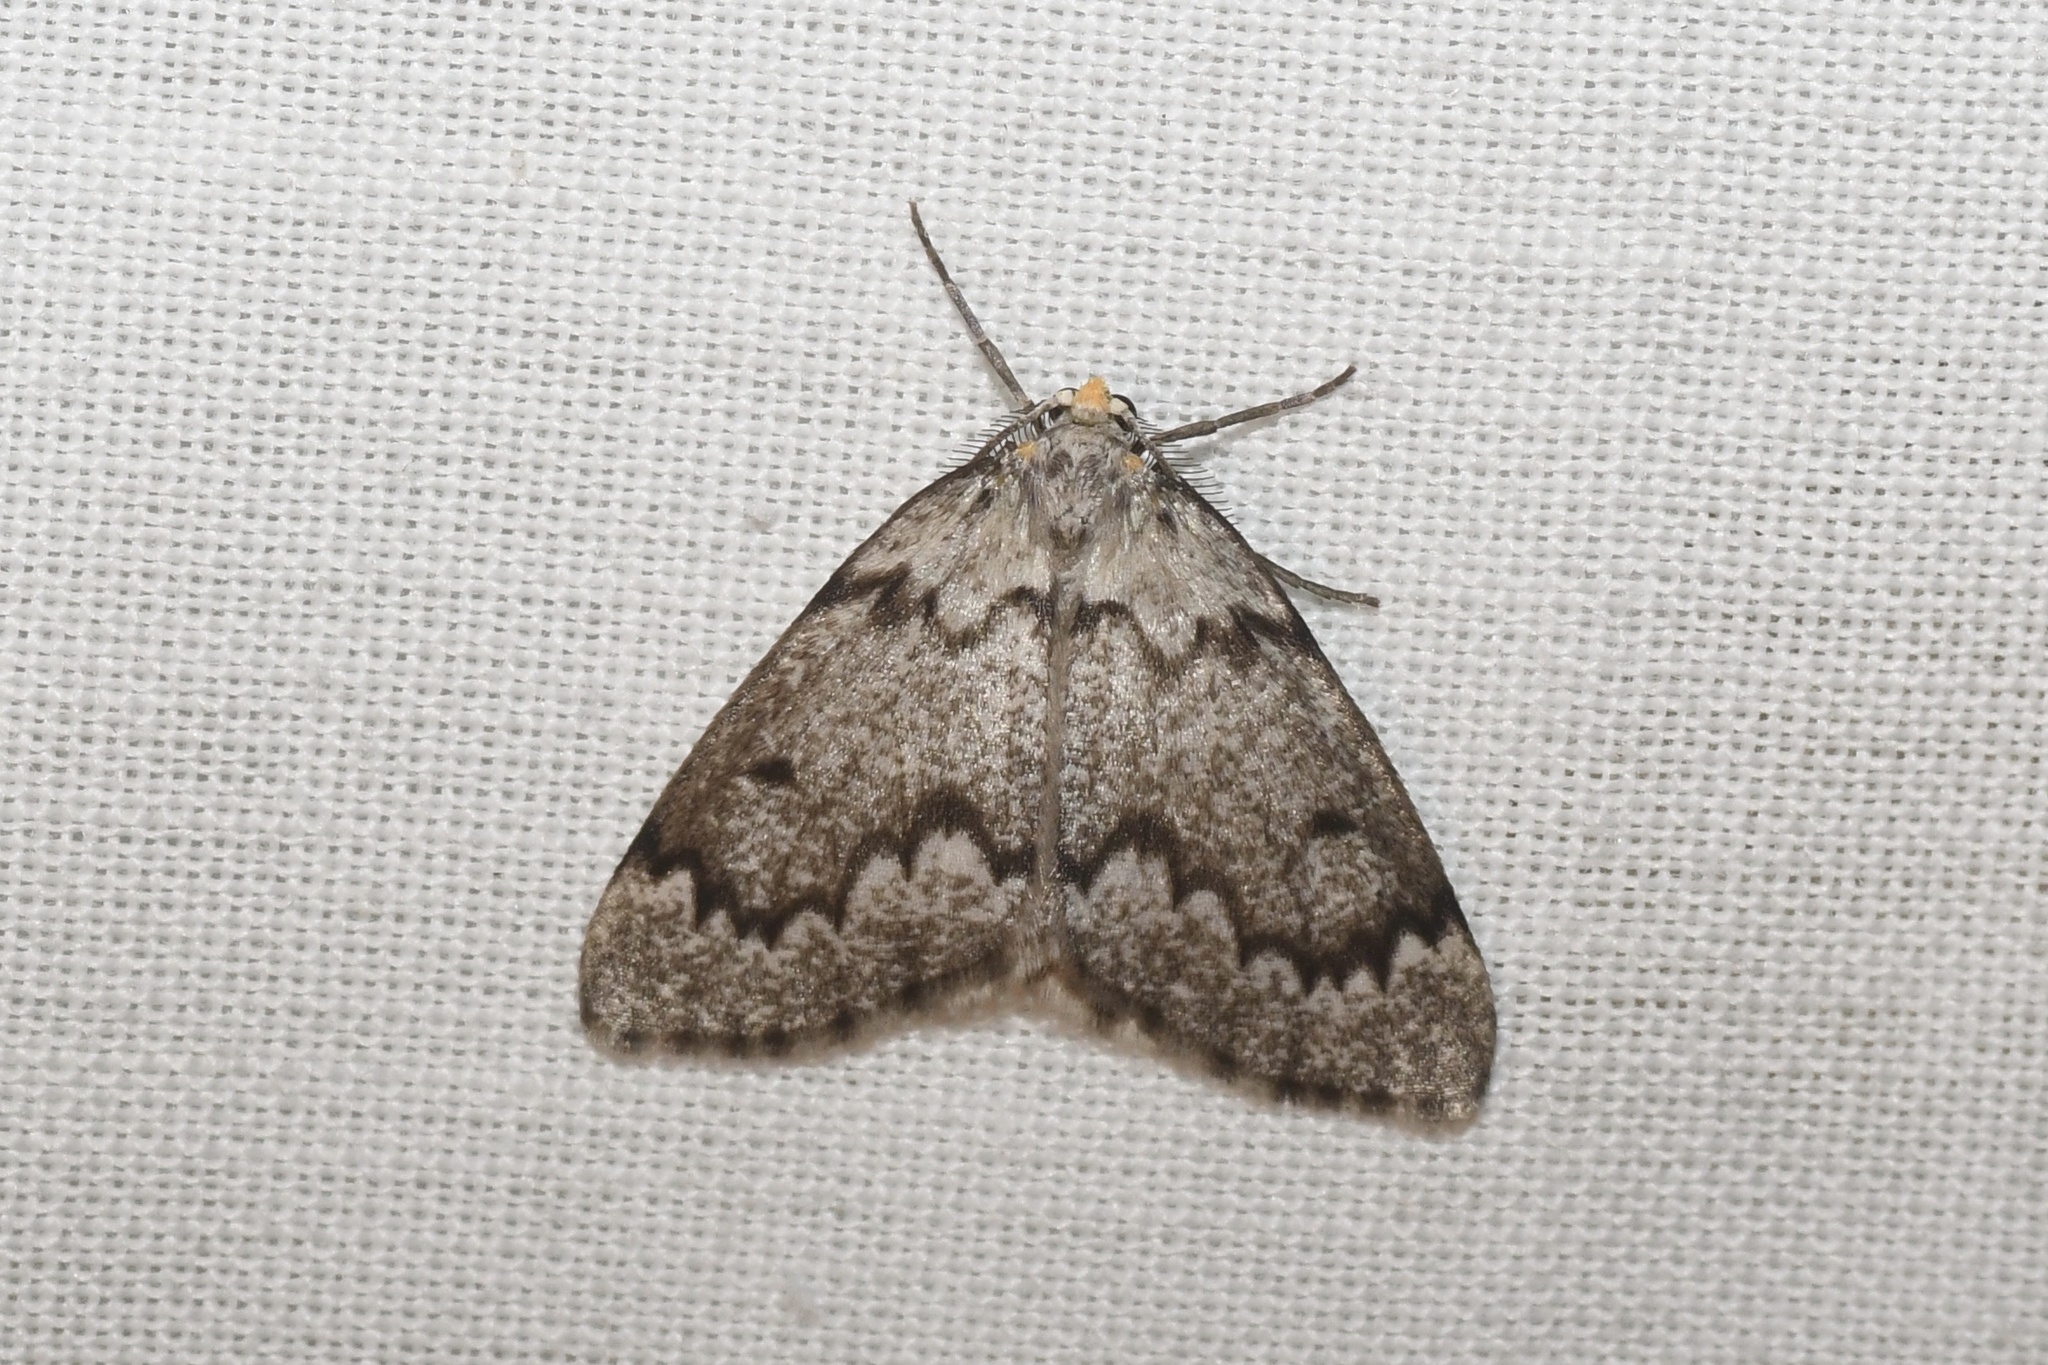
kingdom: Animalia
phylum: Arthropoda
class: Insecta
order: Lepidoptera
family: Geometridae
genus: Nepytia
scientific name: Nepytia canosaria
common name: False hemlock looper
